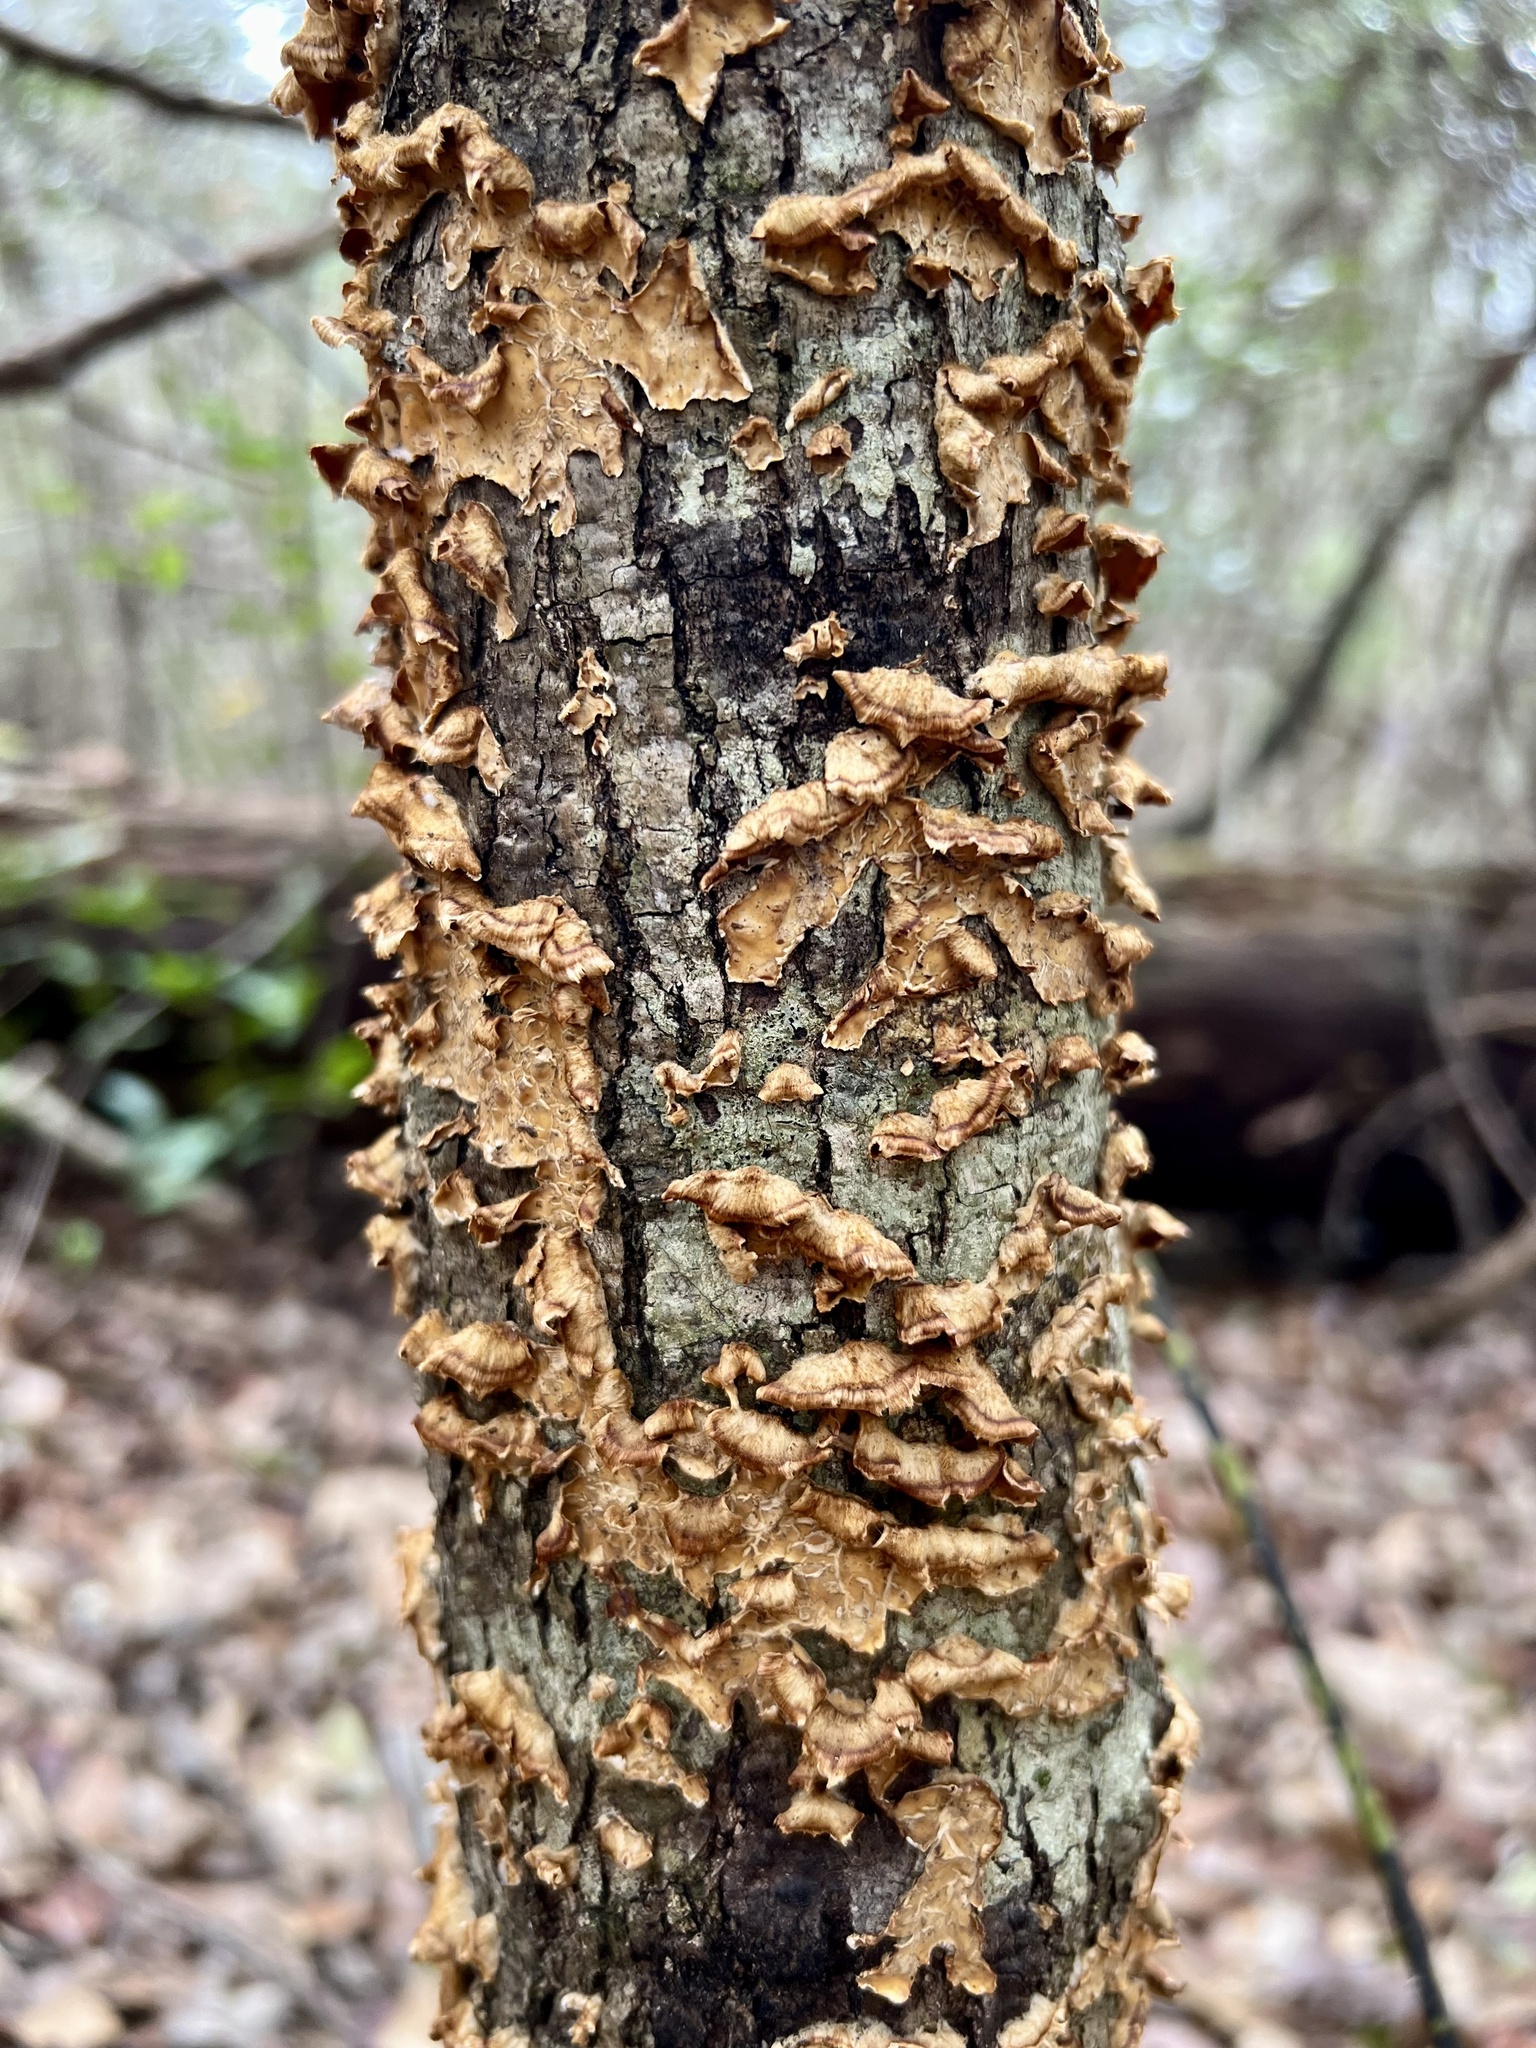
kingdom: Fungi
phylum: Basidiomycota
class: Agaricomycetes
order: Russulales
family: Stereaceae
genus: Stereum
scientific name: Stereum complicatum
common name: Crowded parchment
